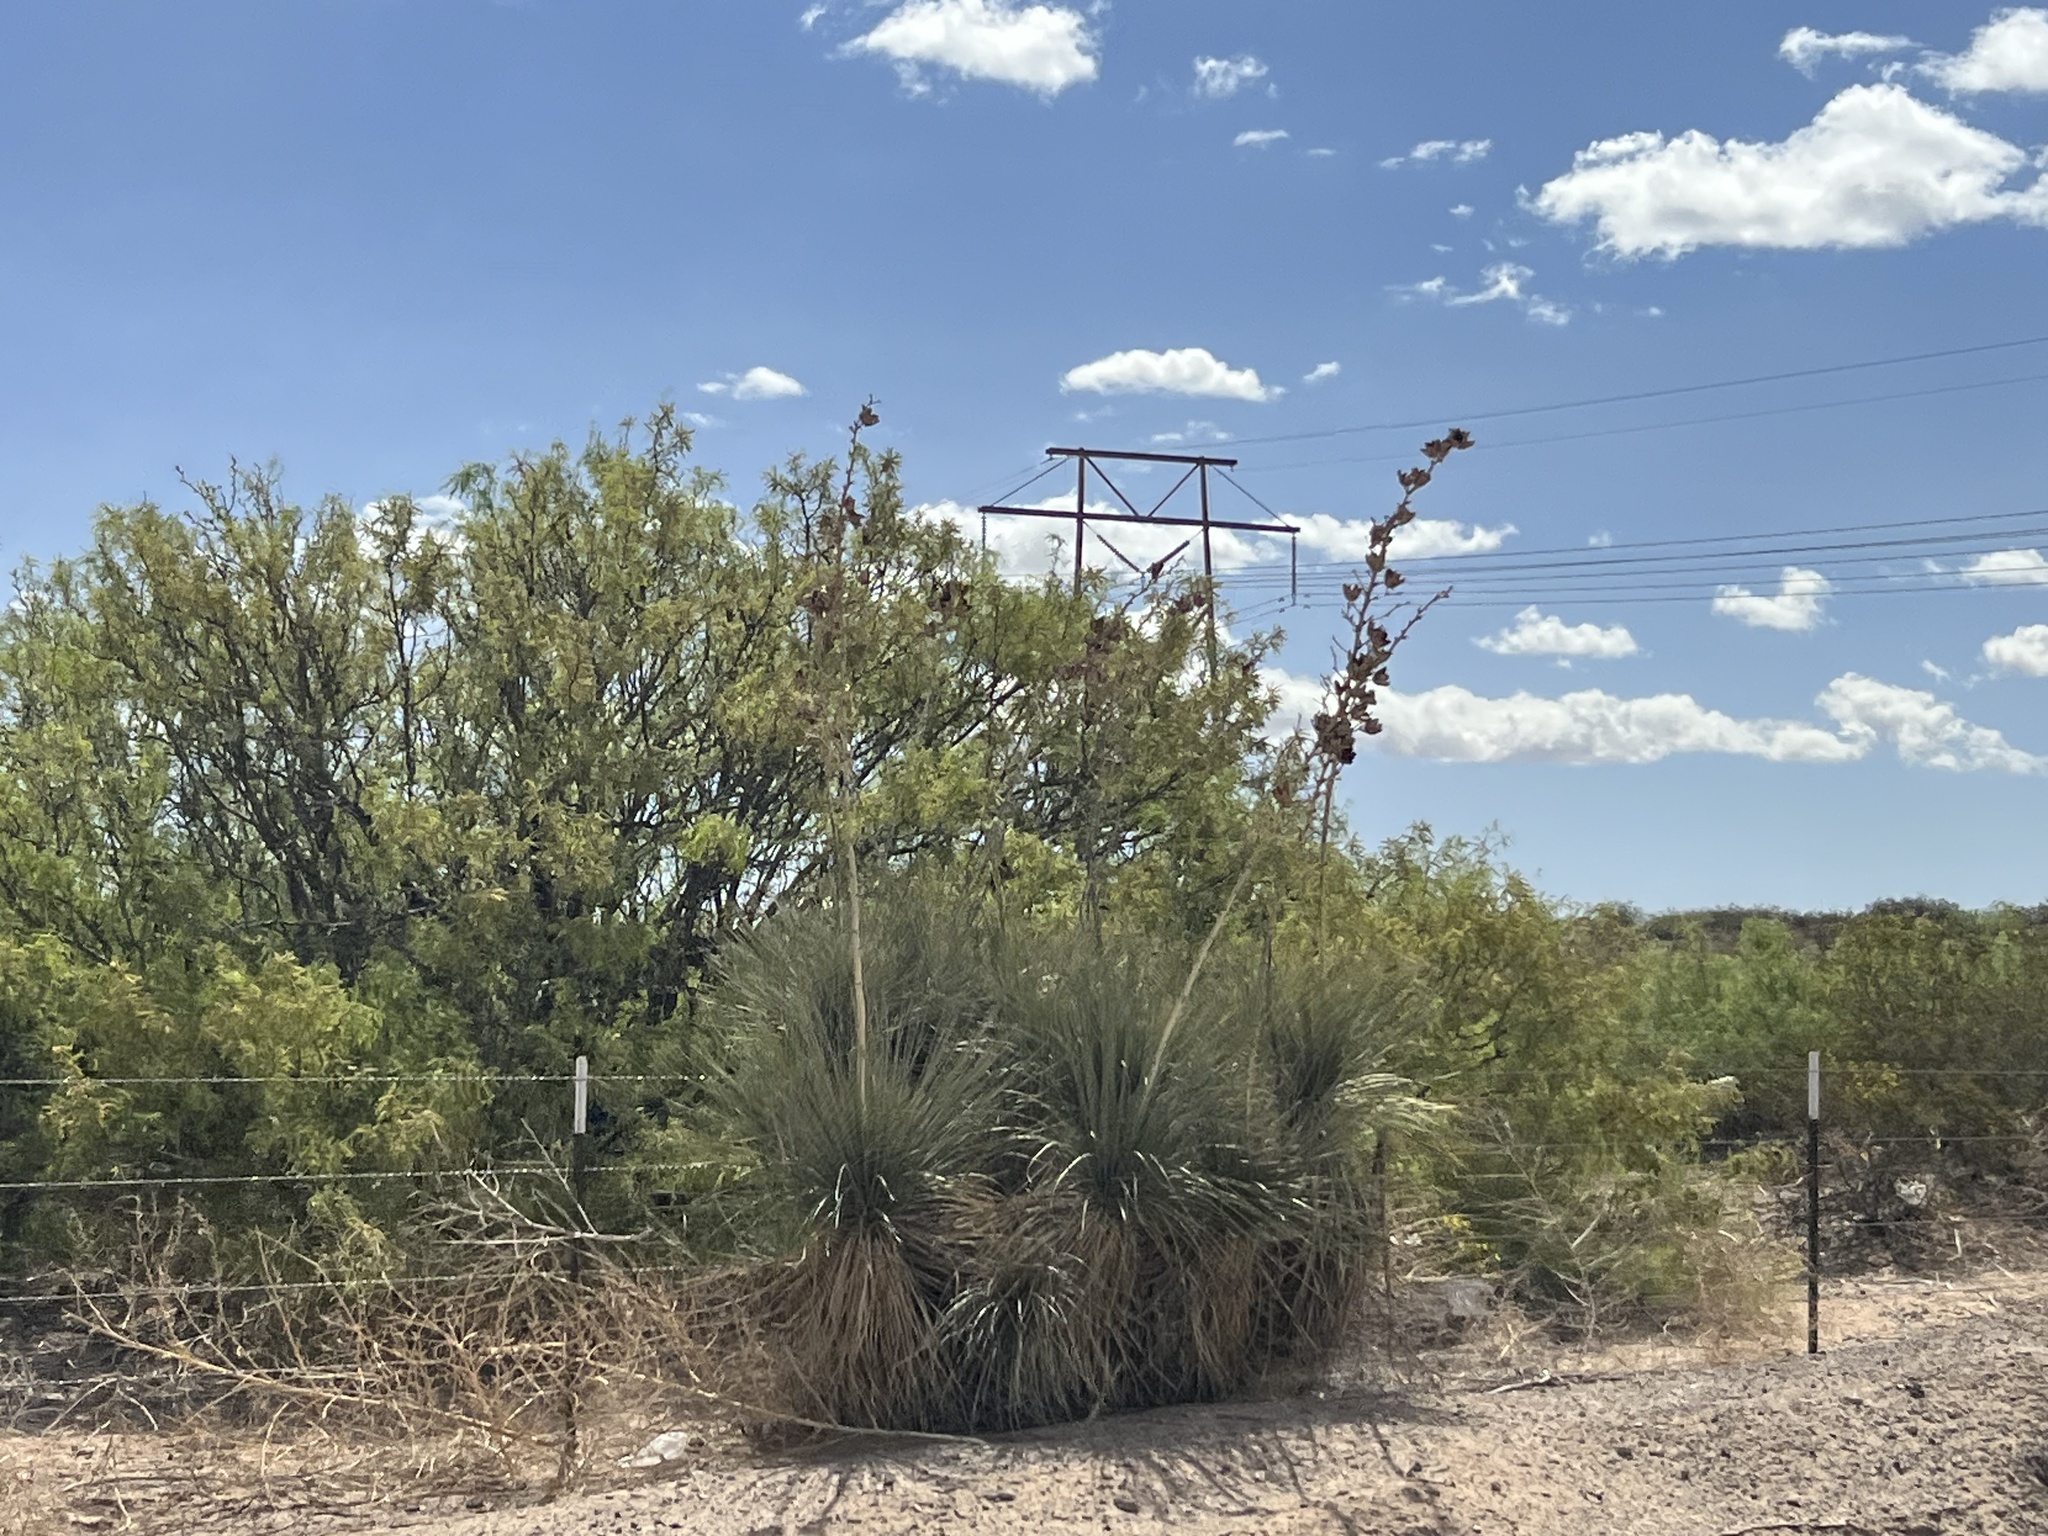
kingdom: Plantae
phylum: Tracheophyta
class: Liliopsida
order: Asparagales
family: Asparagaceae
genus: Yucca
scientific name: Yucca elata
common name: Palmella
